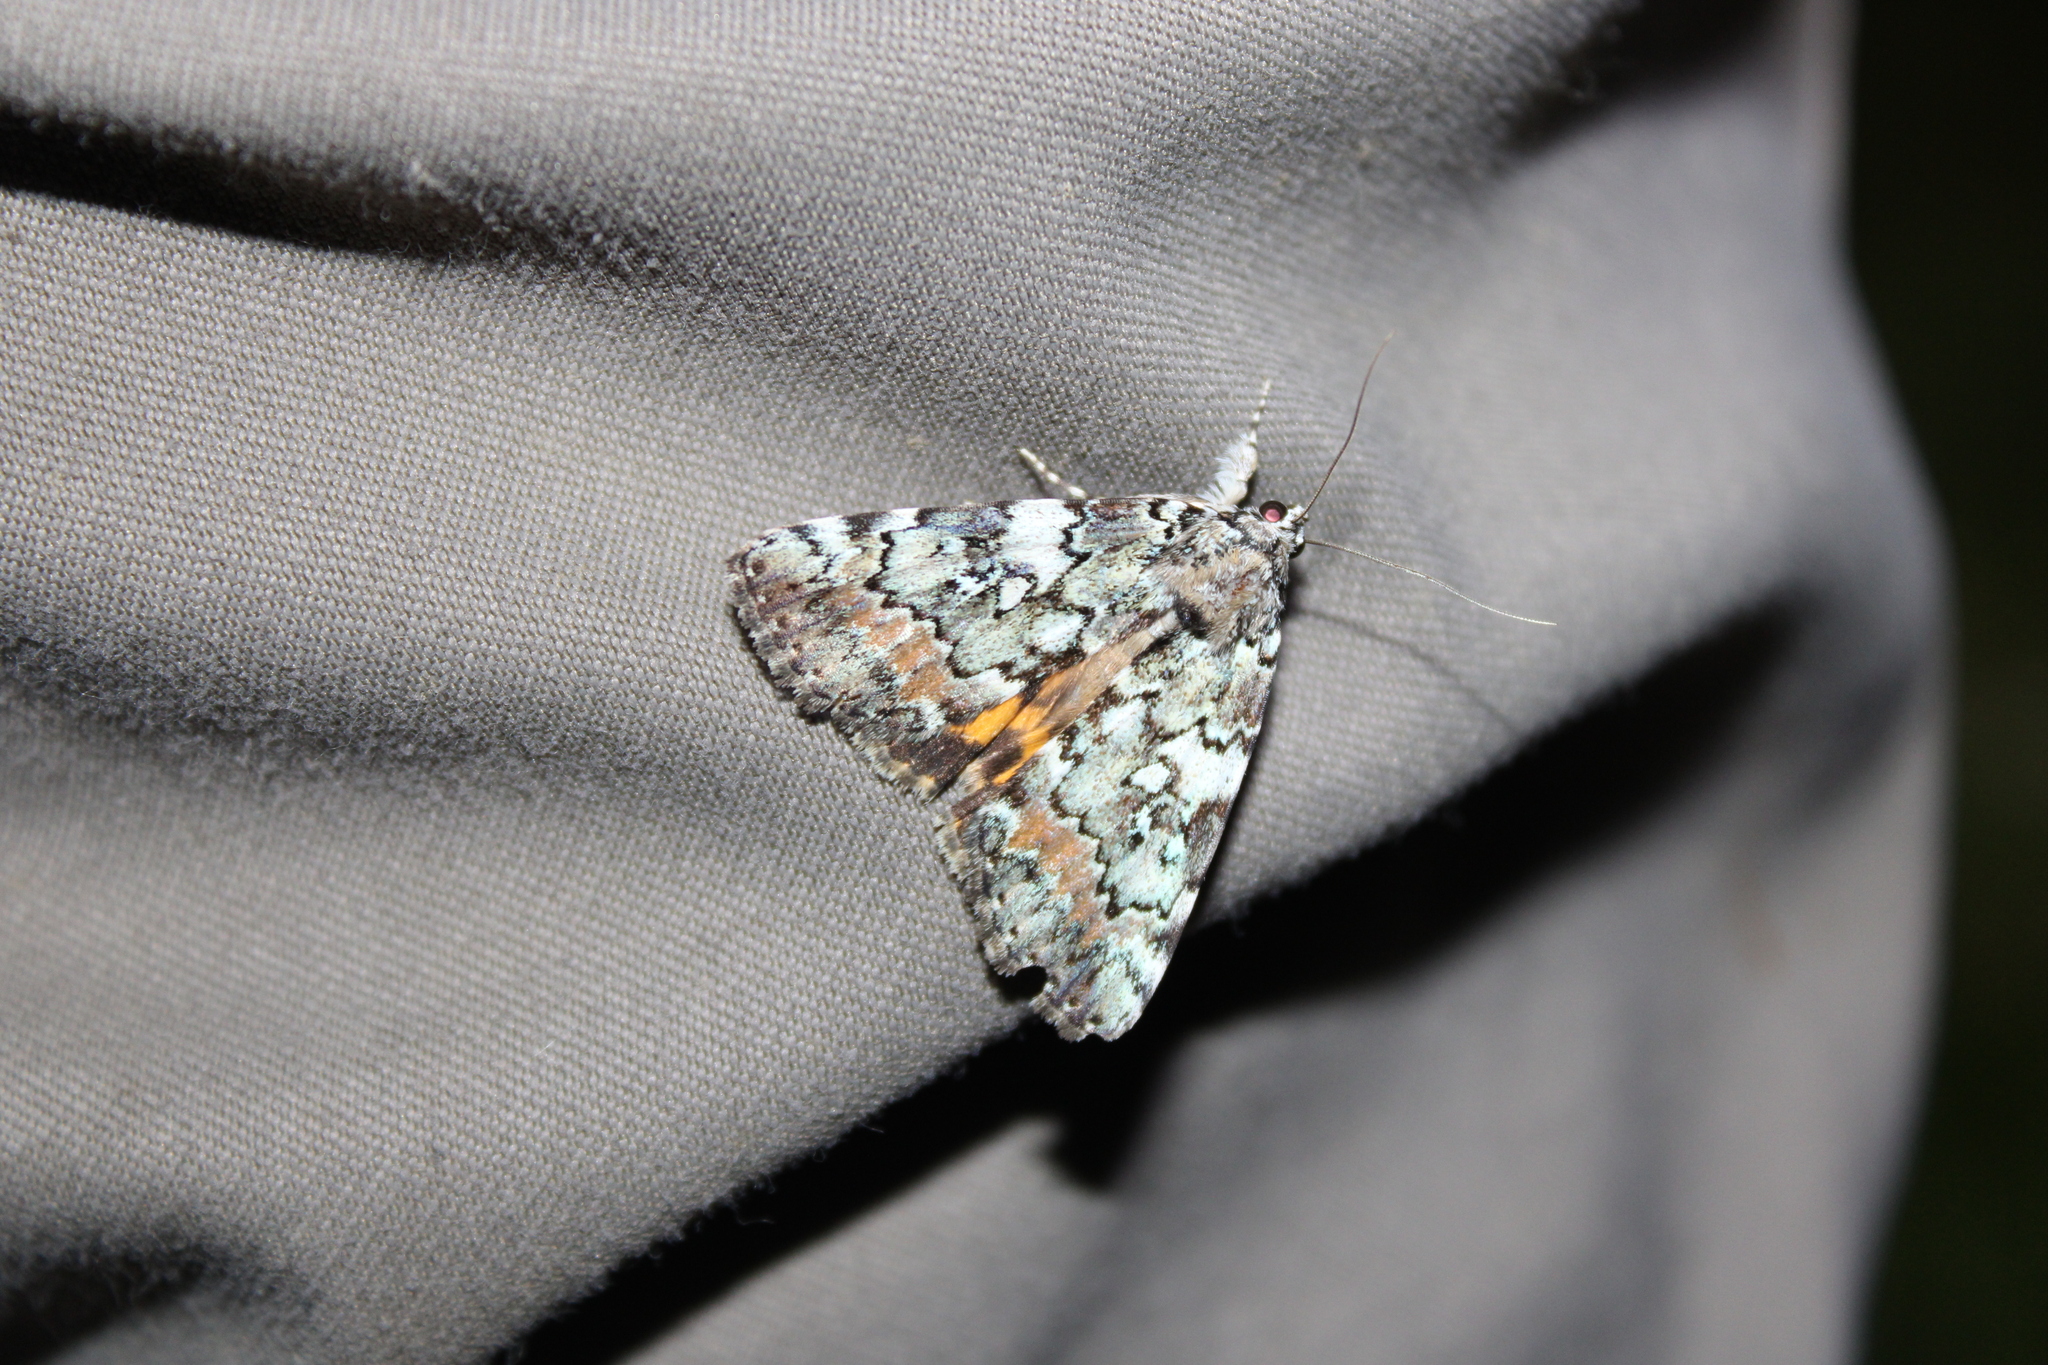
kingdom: Animalia
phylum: Arthropoda
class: Insecta
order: Lepidoptera
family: Erebidae
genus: Catocala
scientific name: Catocala connubialis
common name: Connubial underwing
